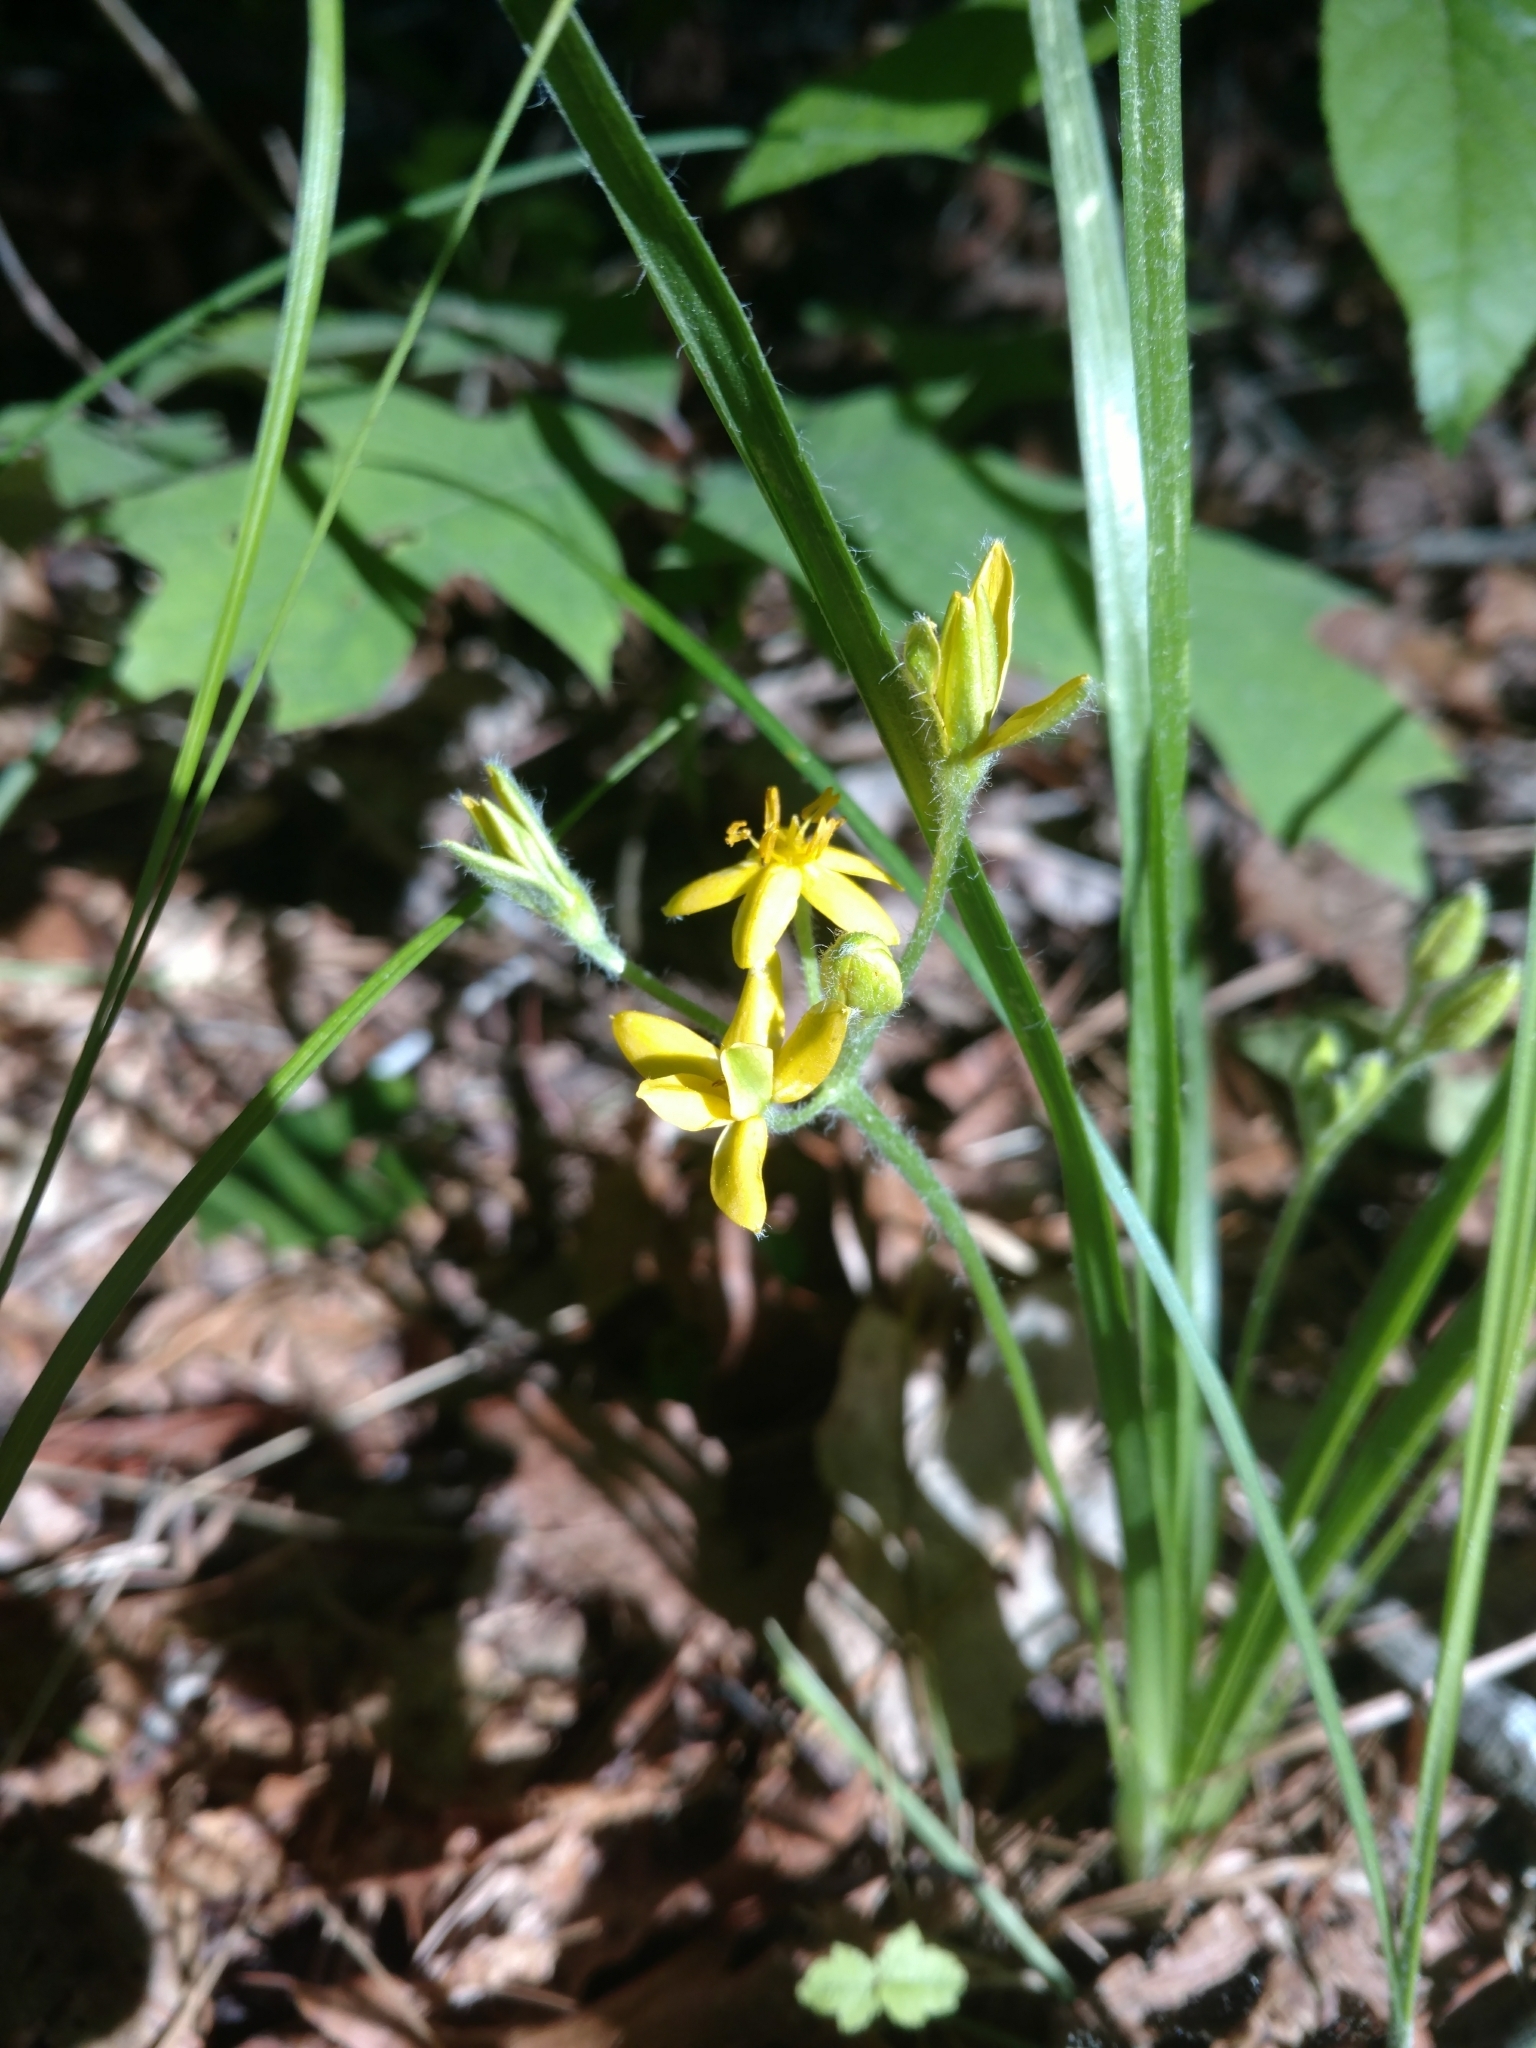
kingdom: Plantae
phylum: Tracheophyta
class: Liliopsida
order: Asparagales
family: Hypoxidaceae
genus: Hypoxis
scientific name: Hypoxis hirsuta
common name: Common goldstar
